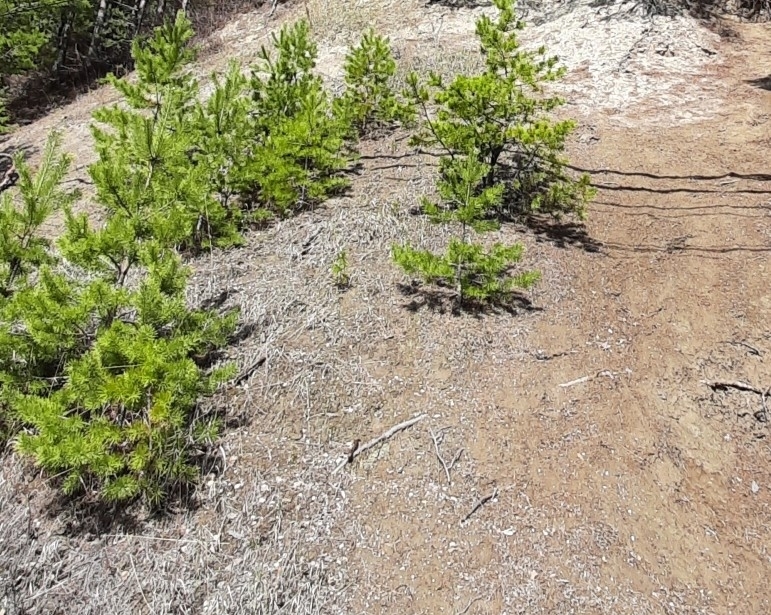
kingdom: Plantae
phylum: Tracheophyta
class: Pinopsida
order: Pinales
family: Pinaceae
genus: Pinus
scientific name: Pinus sylvestris
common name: Scots pine
